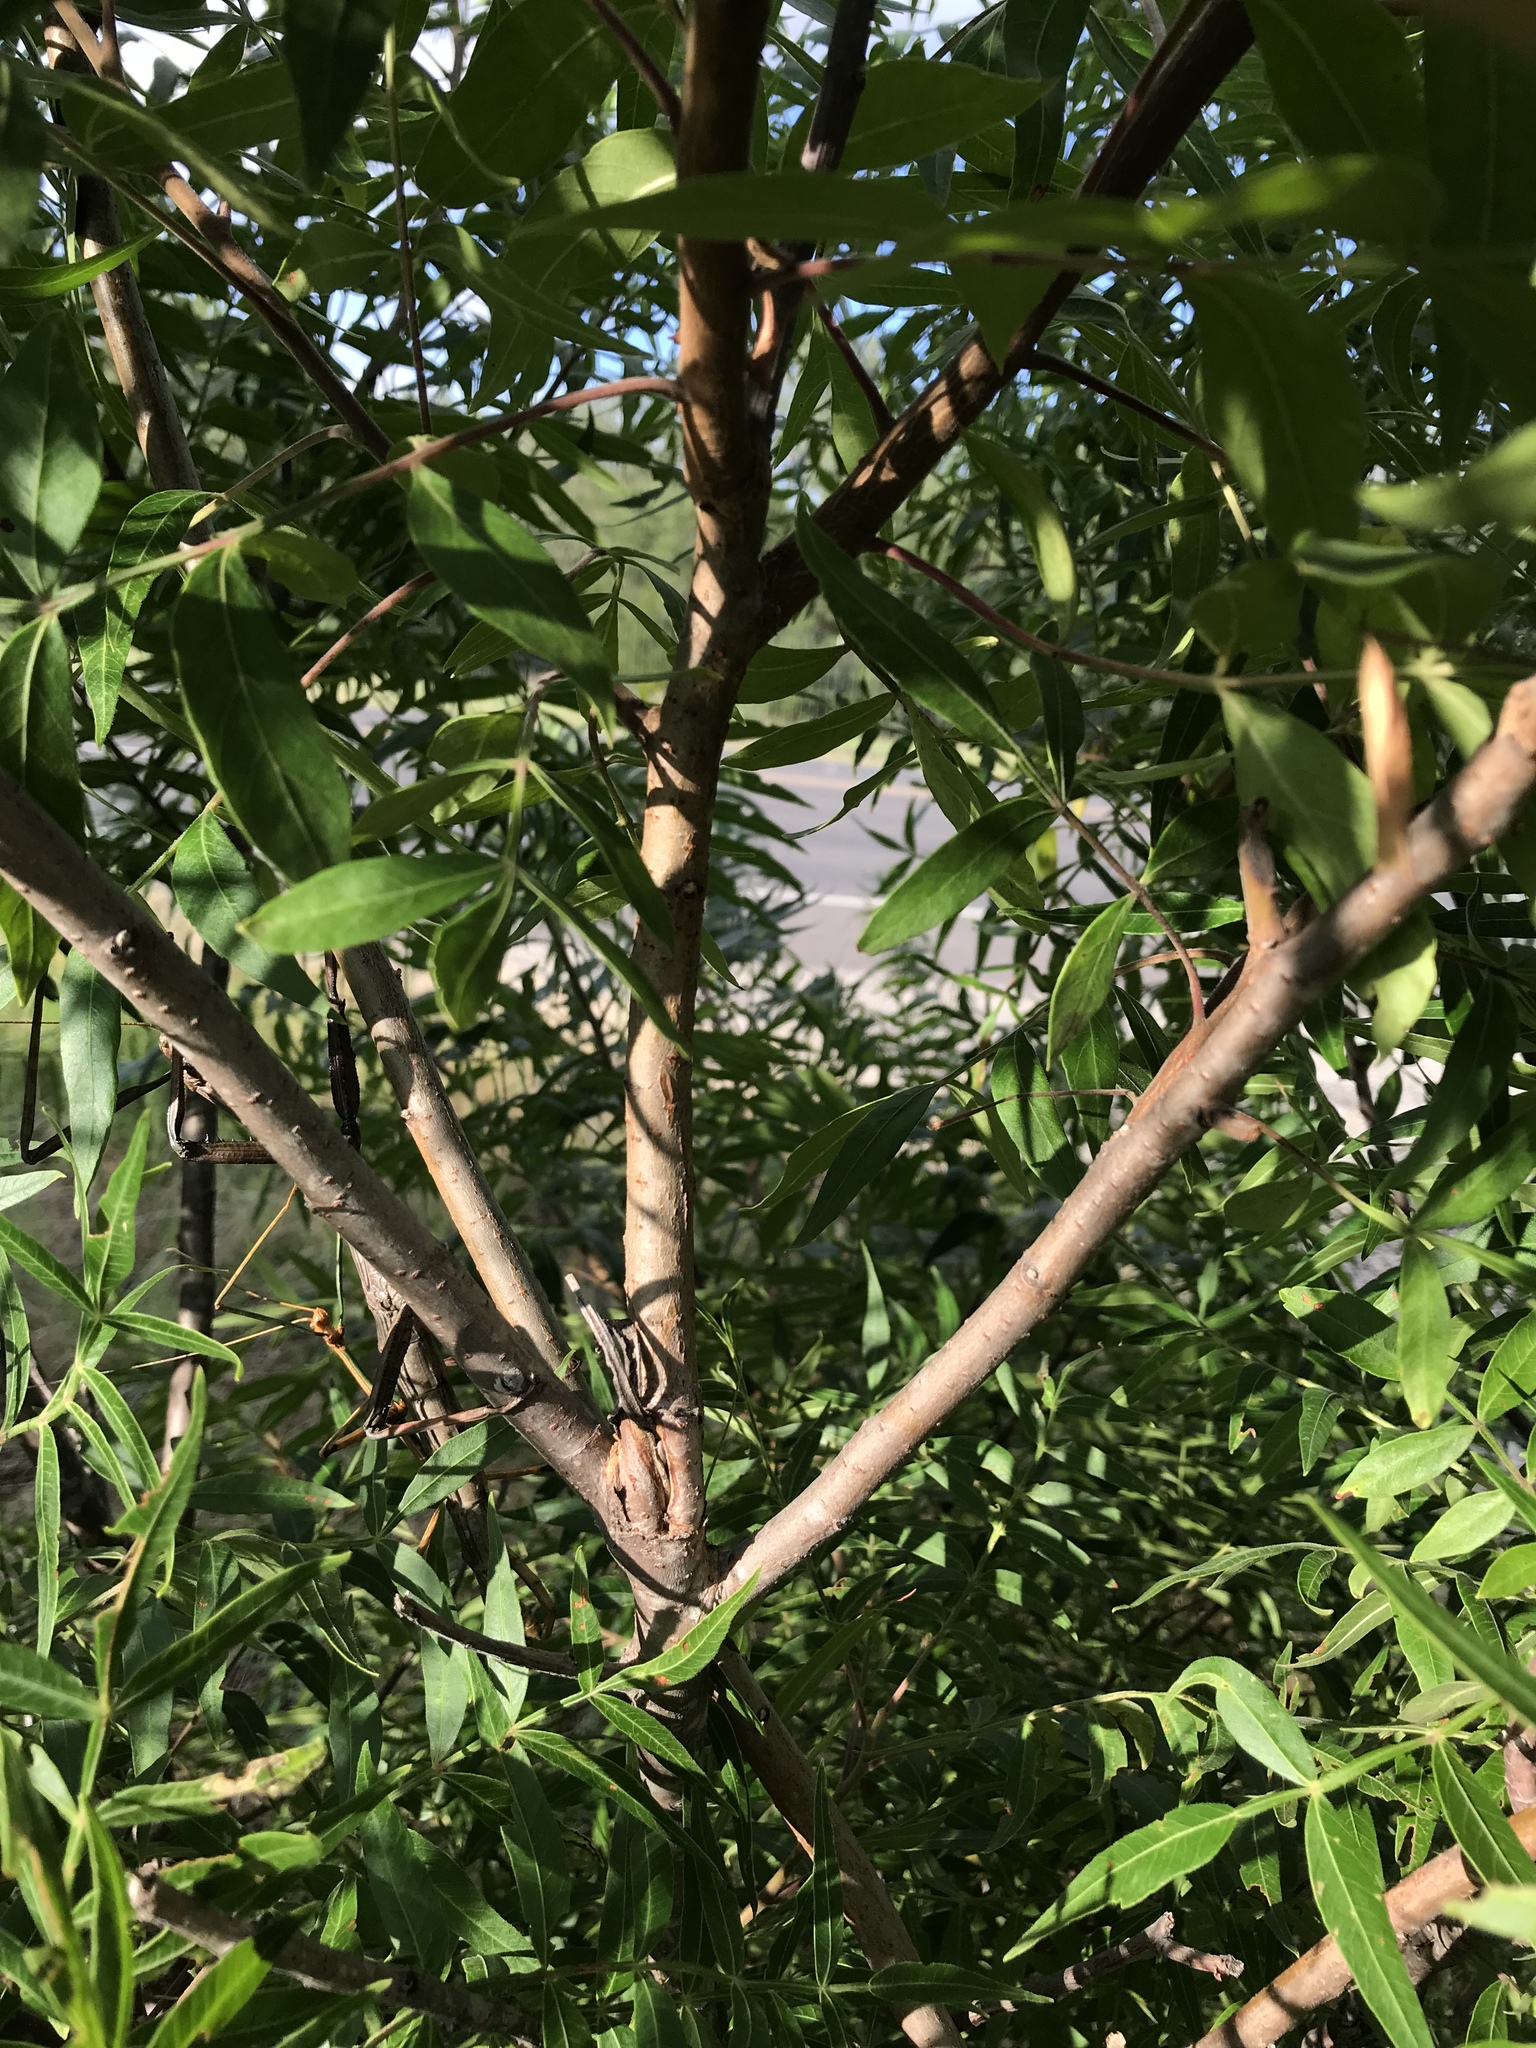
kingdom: Plantae
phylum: Tracheophyta
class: Magnoliopsida
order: Sapindales
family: Anacardiaceae
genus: Rhus
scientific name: Rhus lanceolata
